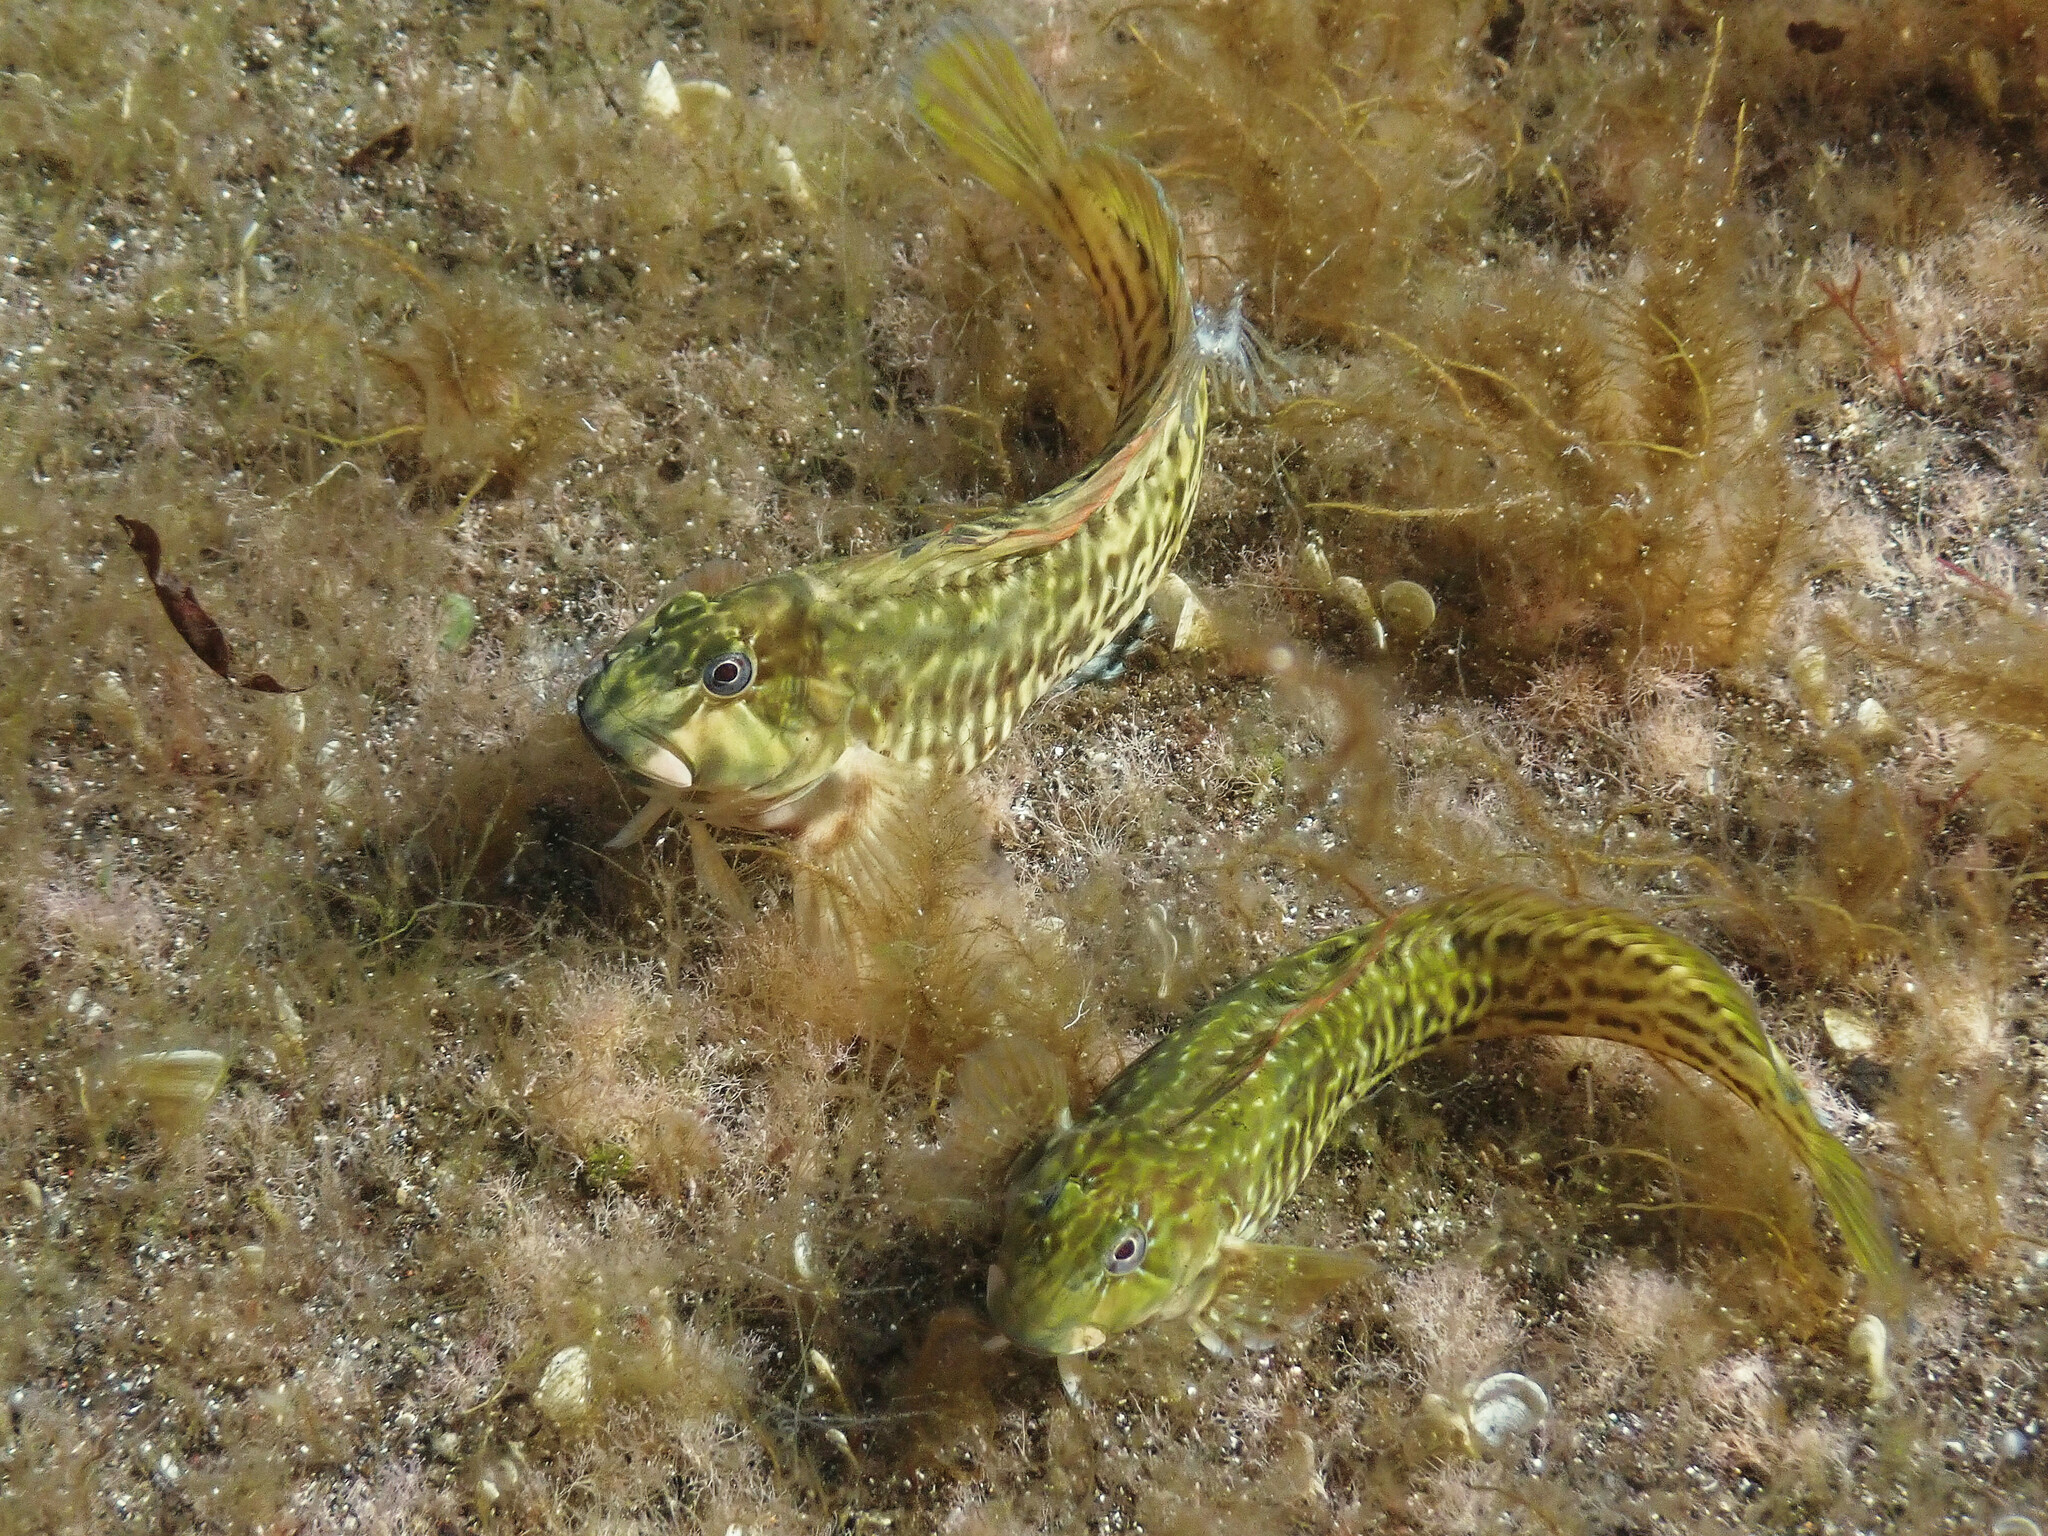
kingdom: Animalia
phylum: Chordata
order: Perciformes
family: Blenniidae
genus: Parablennius
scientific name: Parablennius parvicornis
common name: Rock-pool blenny
